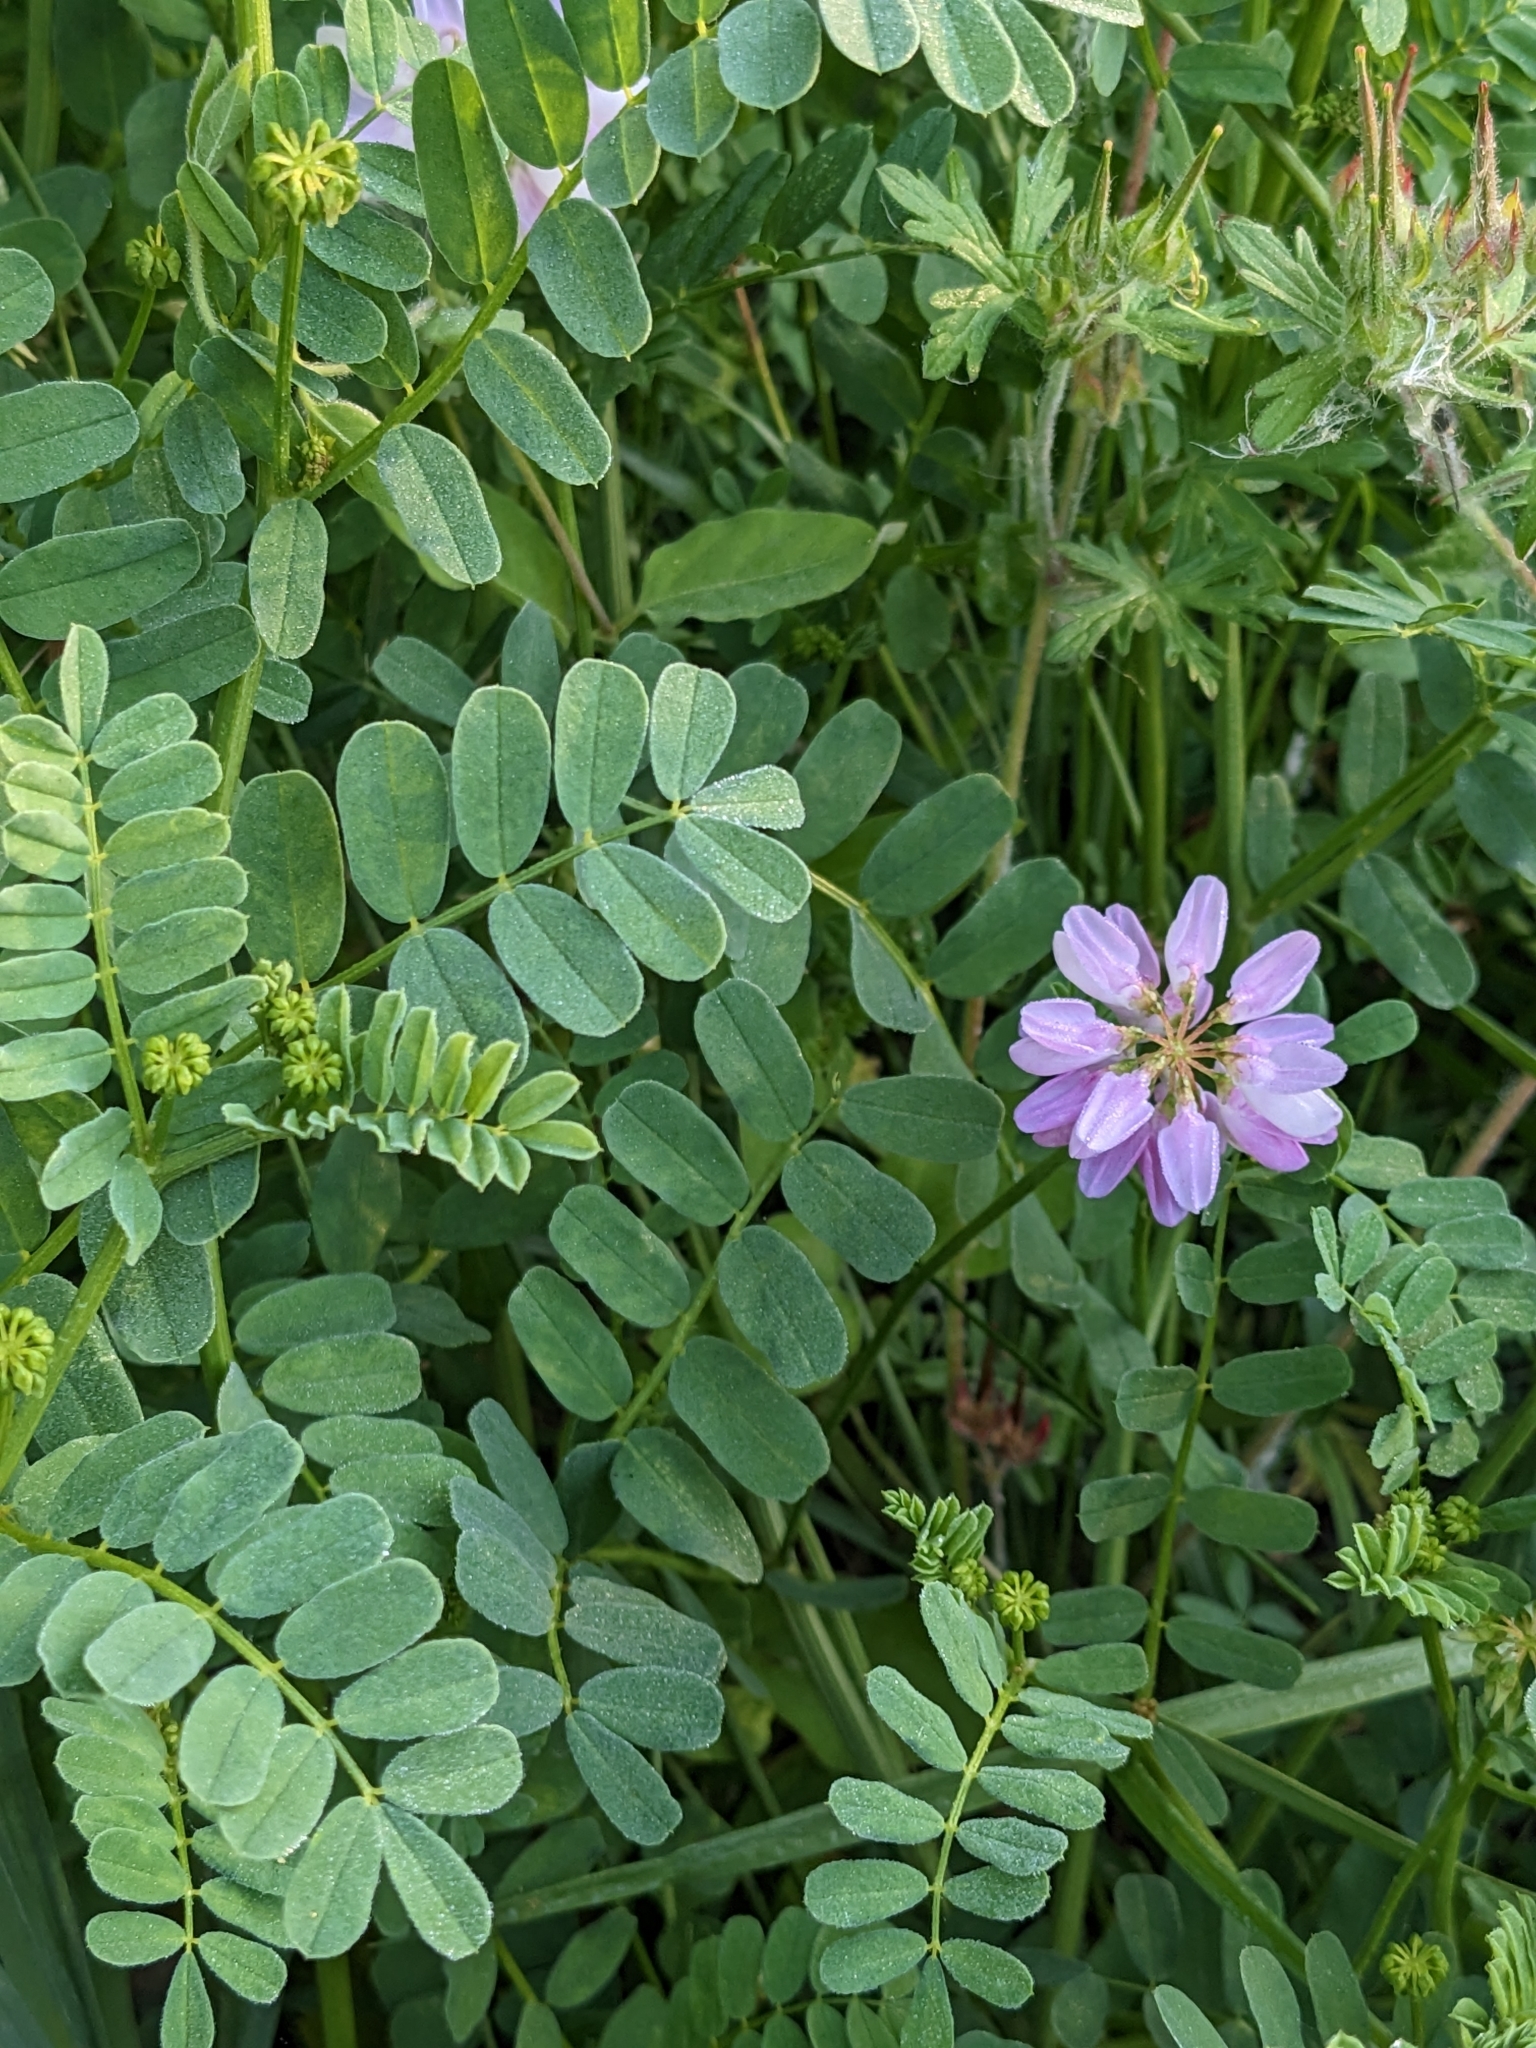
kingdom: Plantae
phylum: Tracheophyta
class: Magnoliopsida
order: Fabales
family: Fabaceae
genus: Coronilla
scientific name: Coronilla varia
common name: Crownvetch
